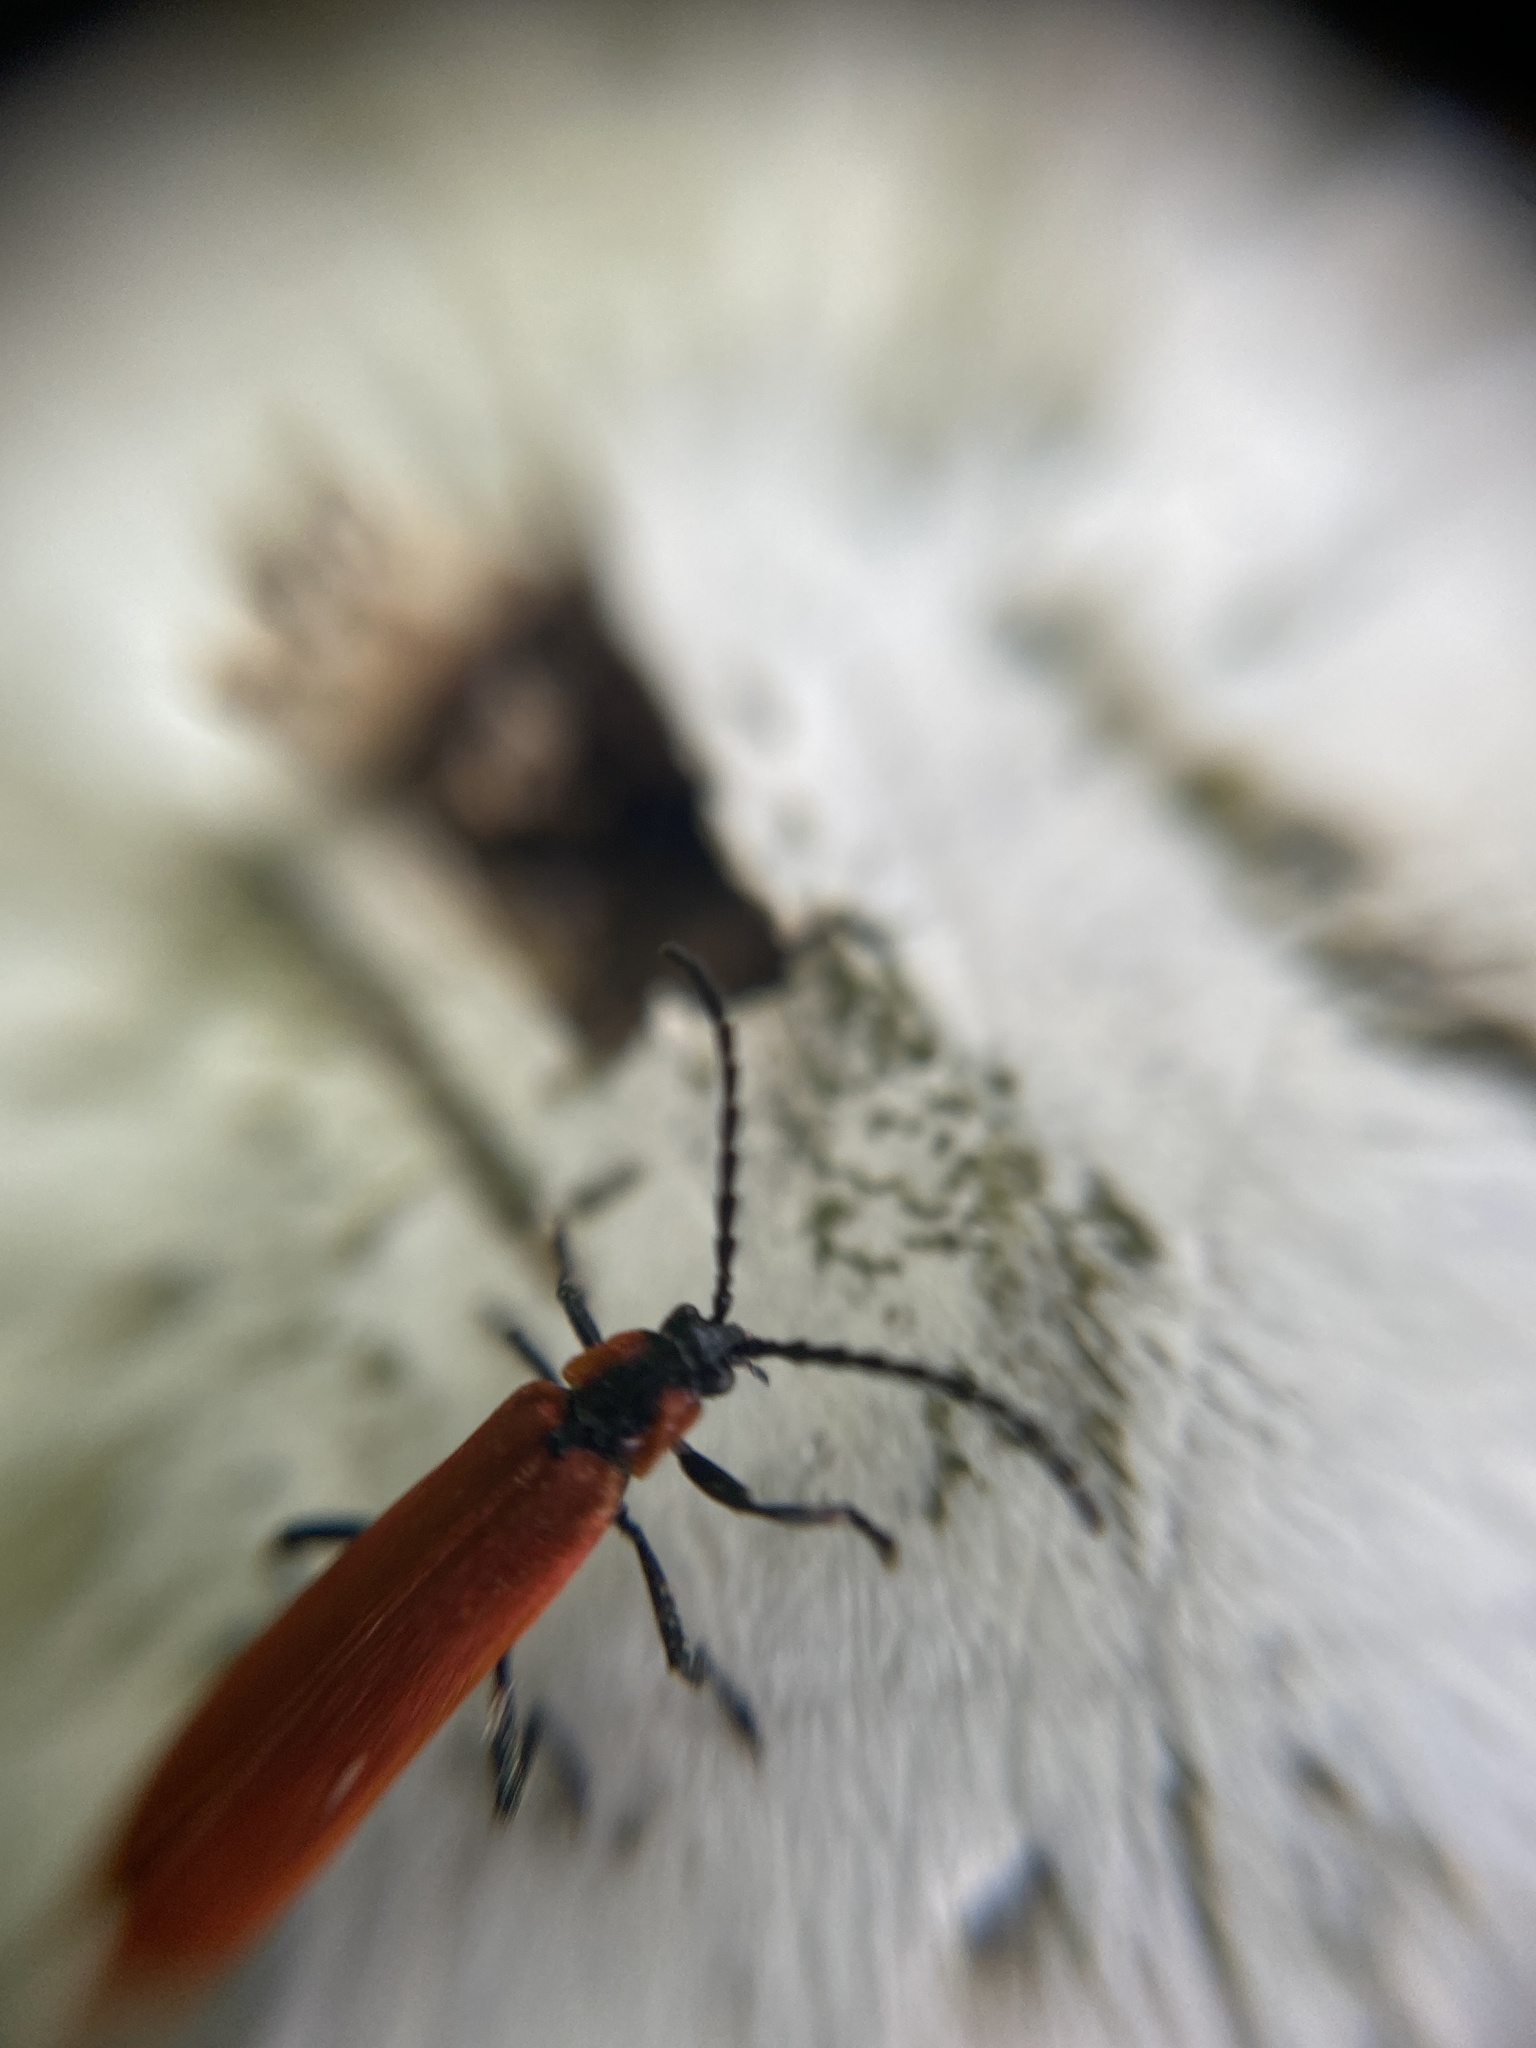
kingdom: Animalia
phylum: Arthropoda
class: Insecta
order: Coleoptera
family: Lycidae
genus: Lygistopterus
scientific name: Lygistopterus sanguineus
